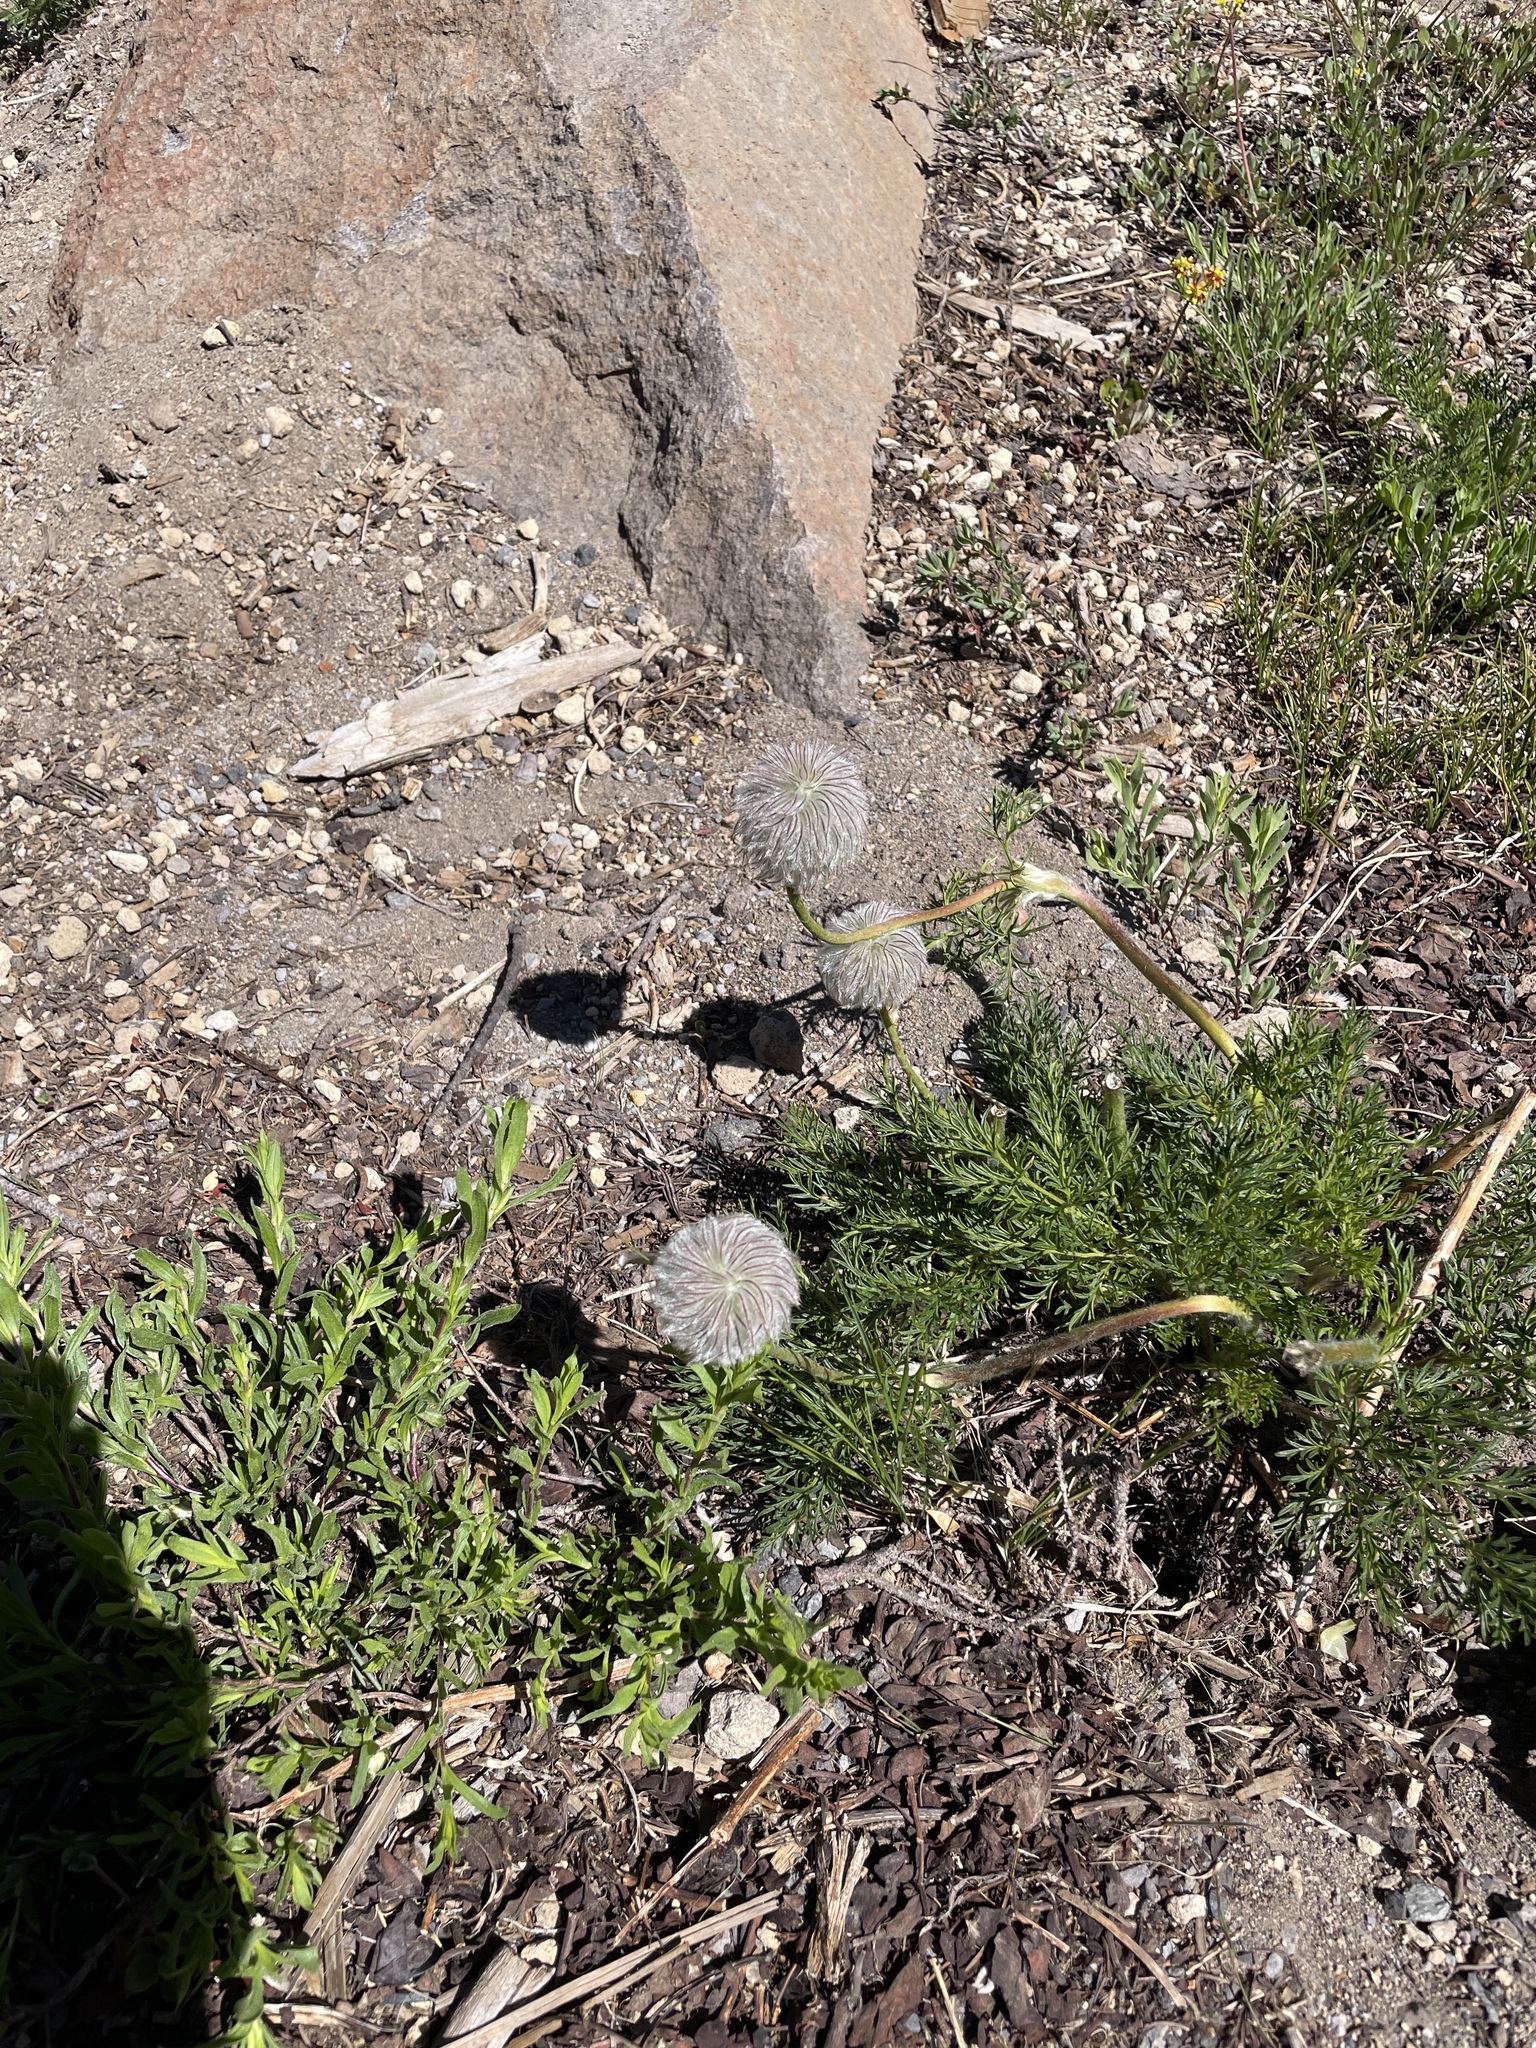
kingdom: Plantae
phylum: Tracheophyta
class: Magnoliopsida
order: Ranunculales
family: Ranunculaceae
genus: Pulsatilla
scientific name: Pulsatilla occidentalis
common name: Mountain pasqueflower
